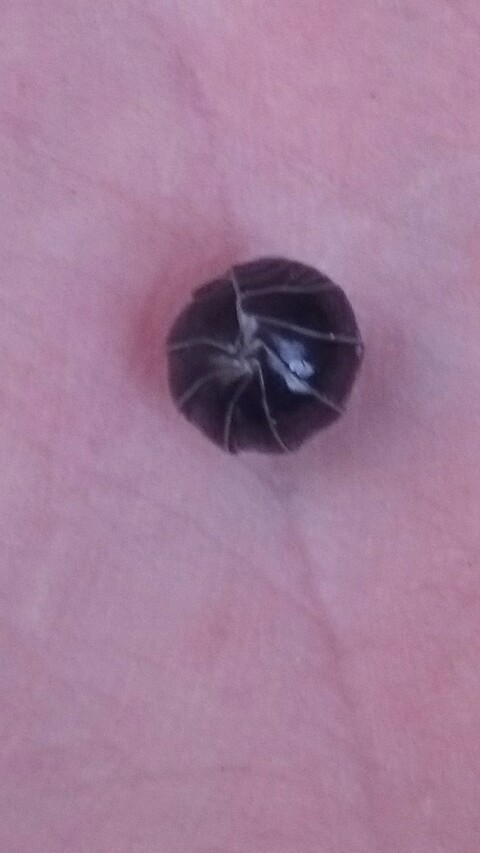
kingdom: Animalia
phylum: Arthropoda
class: Malacostraca
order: Isopoda
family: Armadillidiidae
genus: Armadillidium
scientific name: Armadillidium vulgare
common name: Common pill woodlouse
